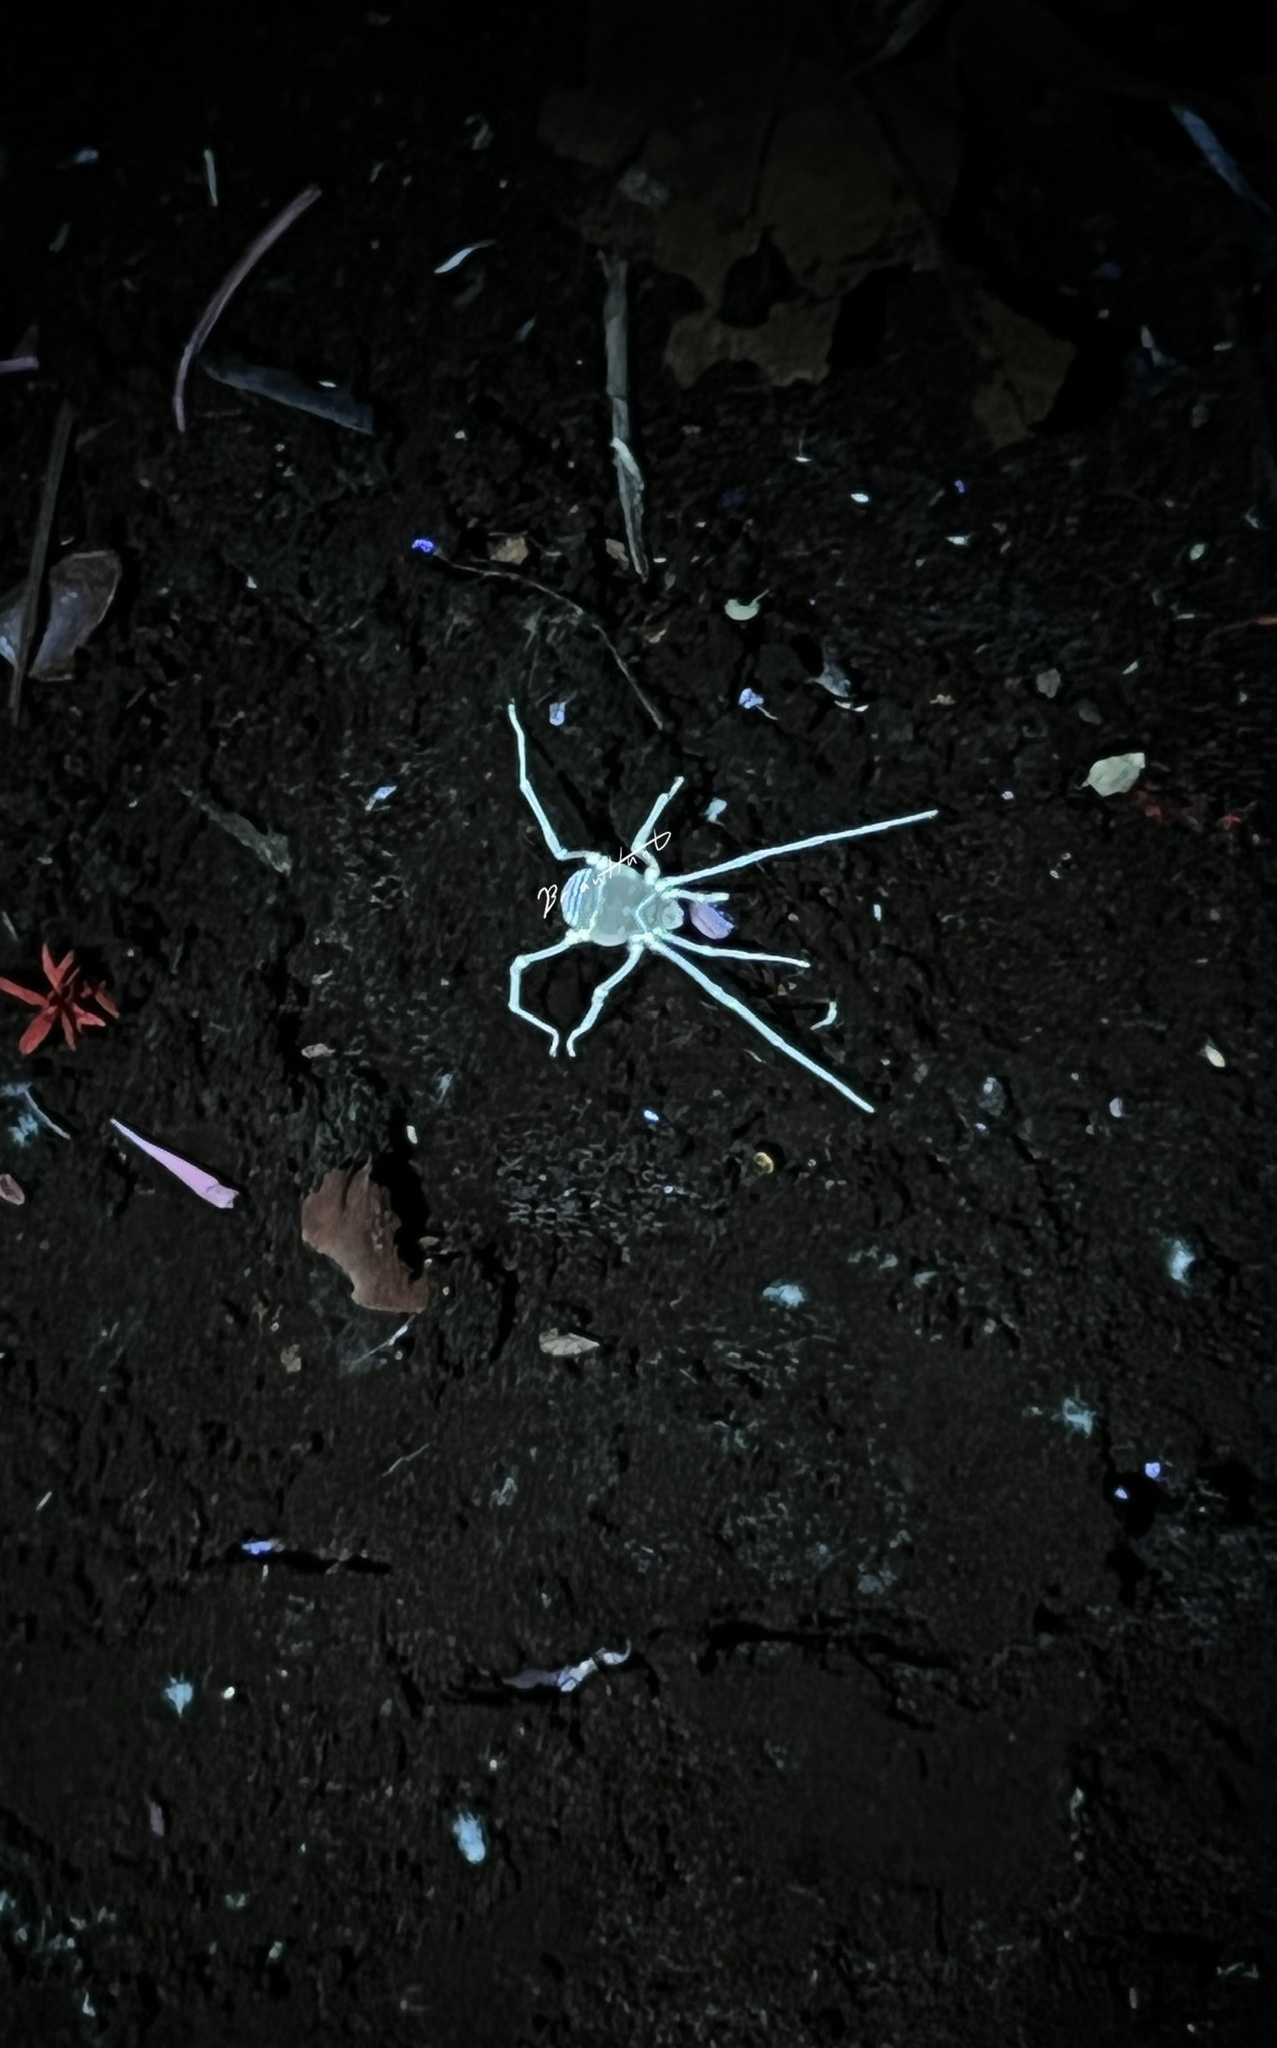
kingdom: Animalia
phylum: Arthropoda
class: Arachnida
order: Opiliones
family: Cosmetidae
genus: Libitioides
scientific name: Libitioides sayi
